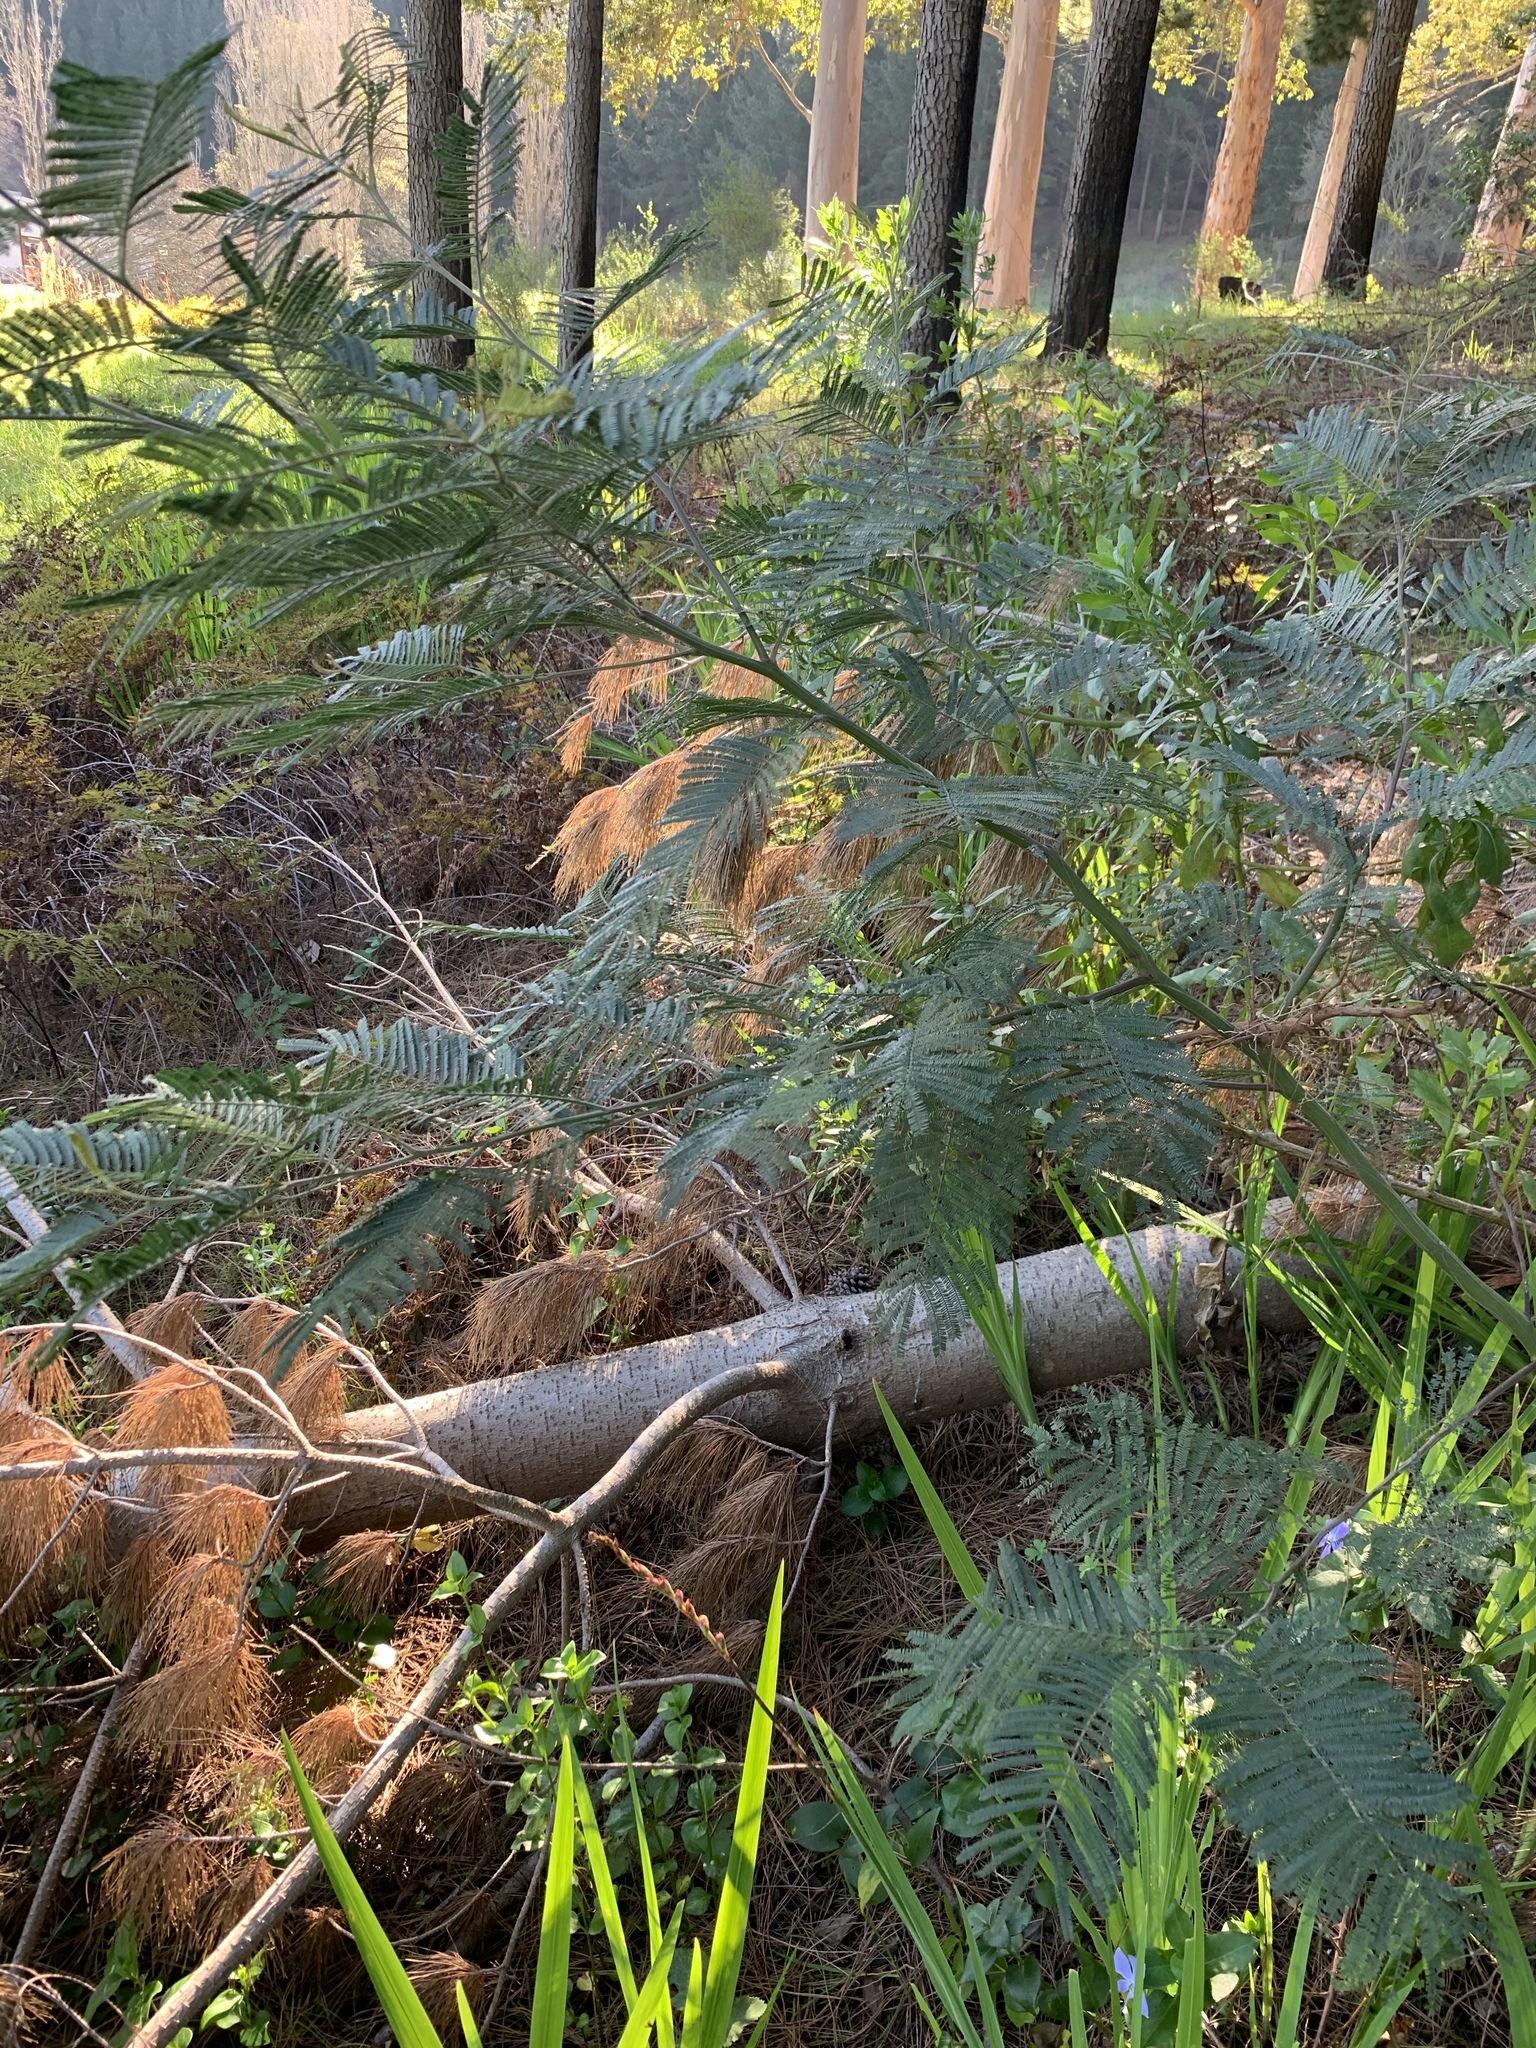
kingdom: Plantae
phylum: Tracheophyta
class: Magnoliopsida
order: Fabales
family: Fabaceae
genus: Acacia
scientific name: Acacia mearnsii
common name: Black wattle
